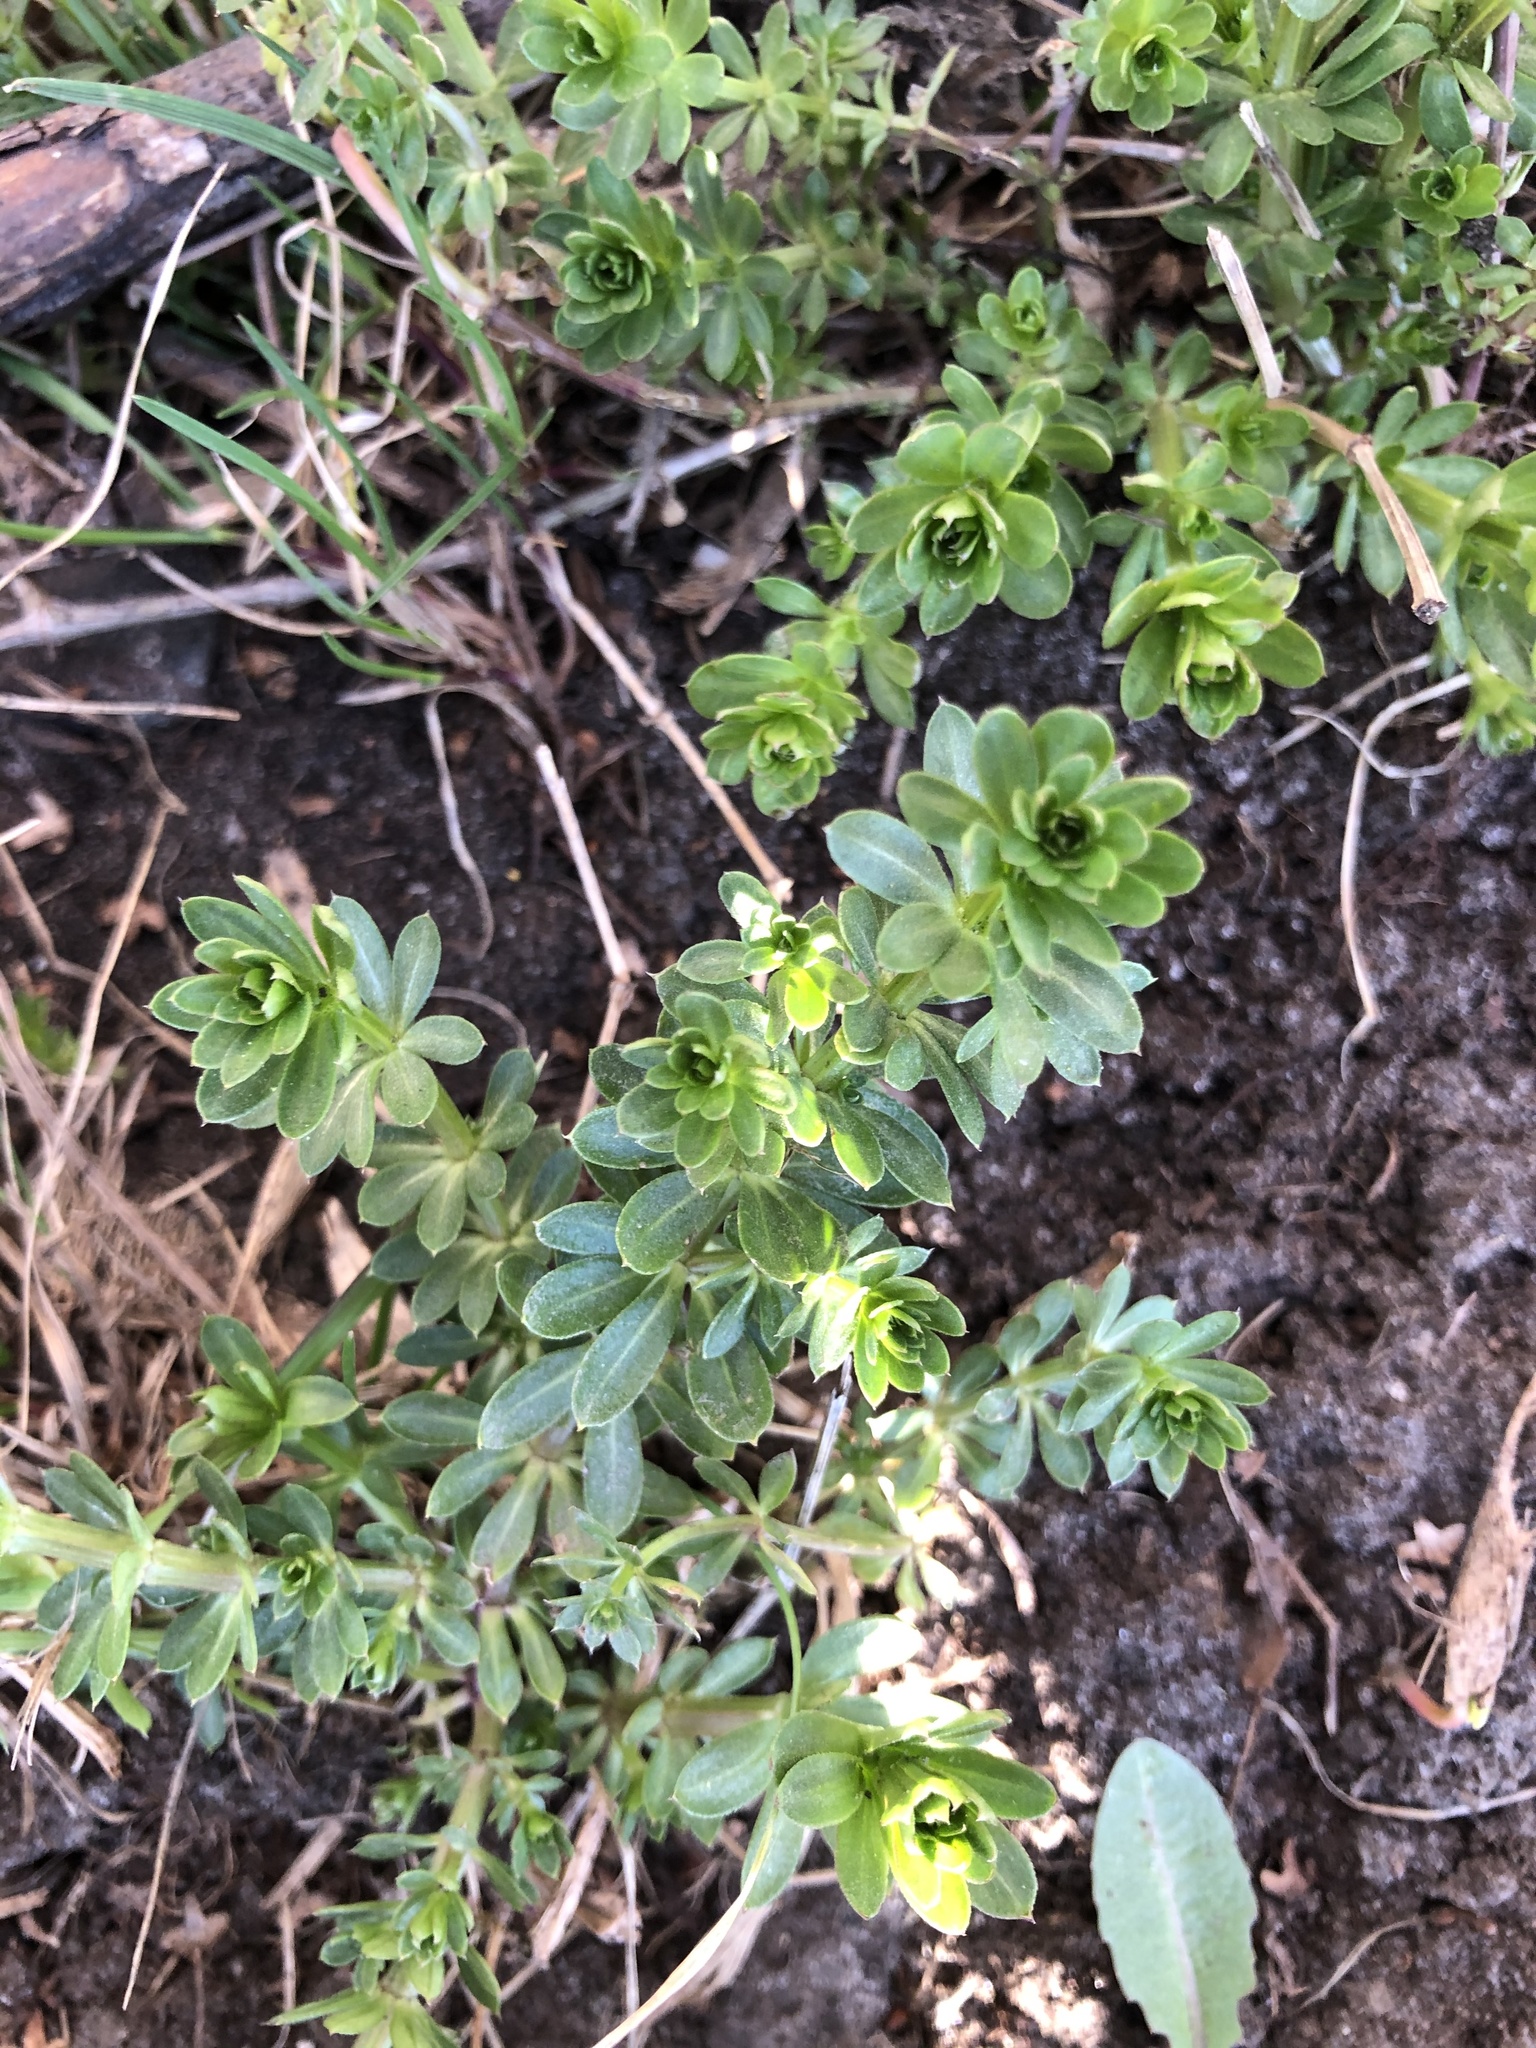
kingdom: Plantae
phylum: Tracheophyta
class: Magnoliopsida
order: Gentianales
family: Rubiaceae
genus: Galium
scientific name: Galium mollugo
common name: Hedge bedstraw
